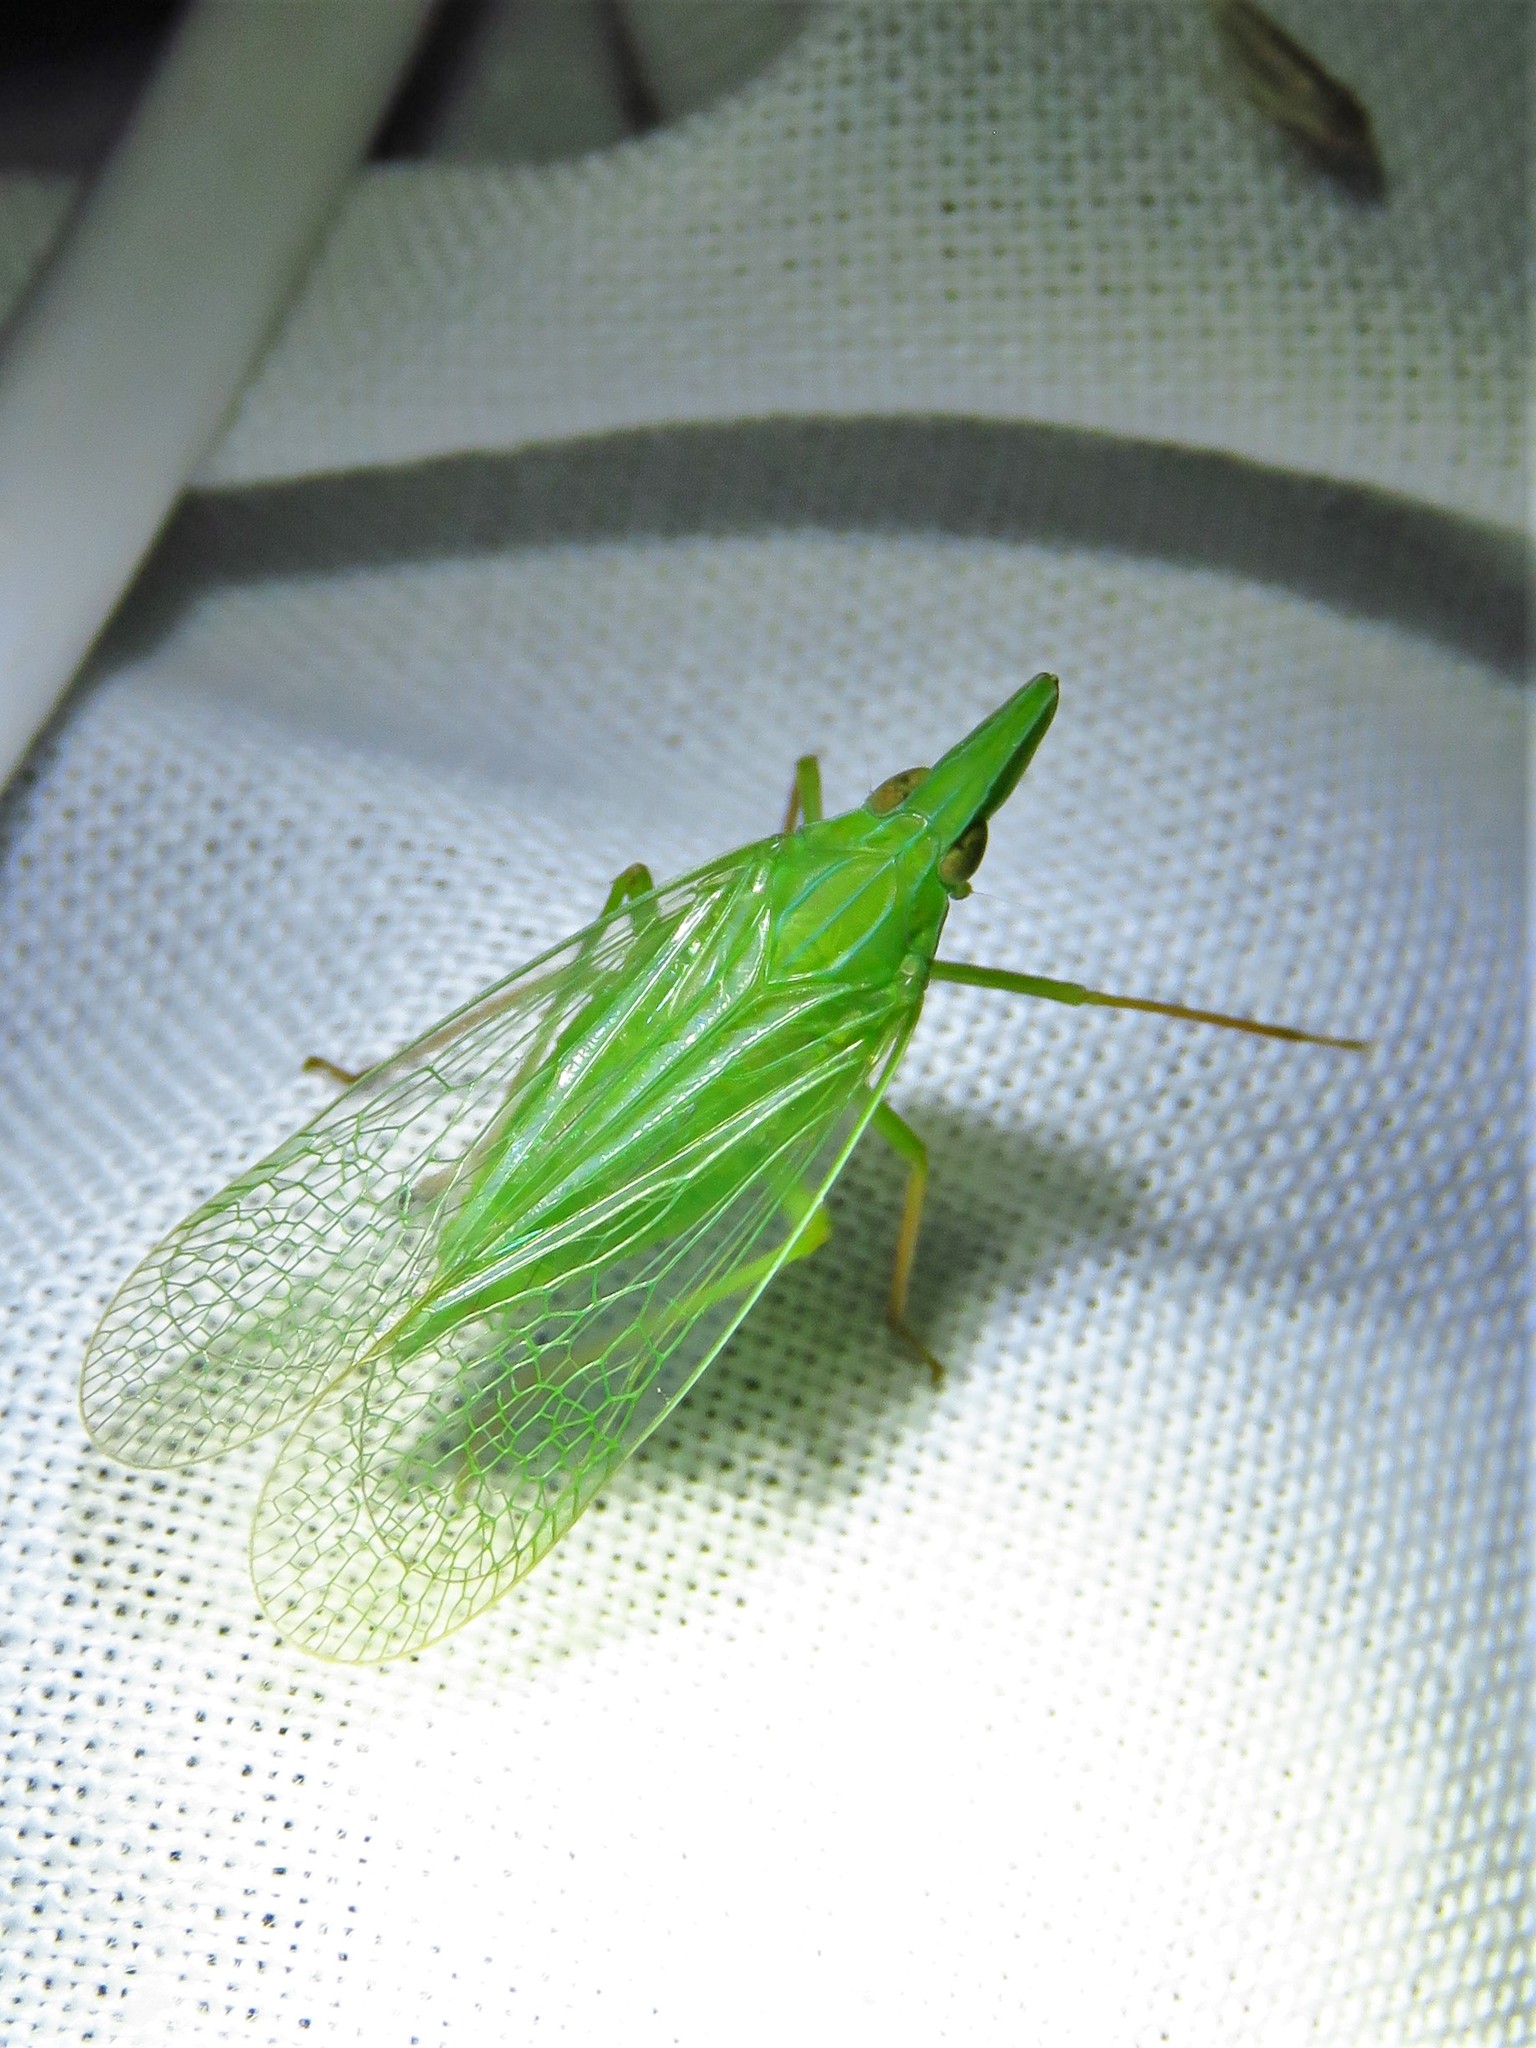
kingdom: Animalia
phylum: Arthropoda
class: Insecta
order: Hemiptera
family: Dictyopharidae
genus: Rhynchomitra
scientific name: Rhynchomitra microrhina
